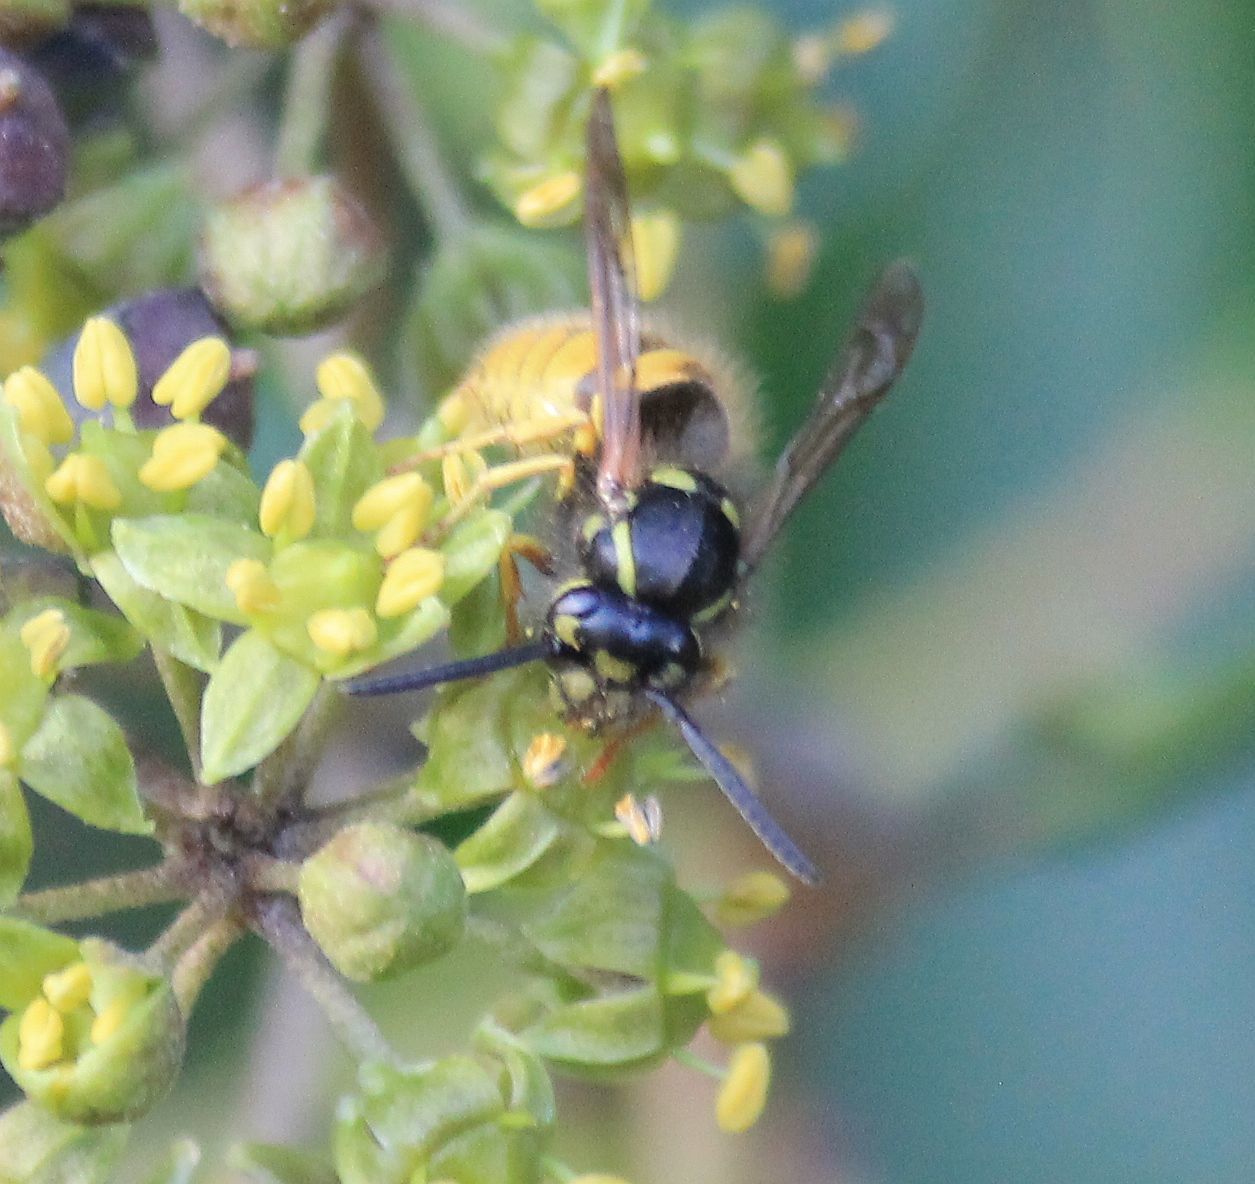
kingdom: Animalia
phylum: Arthropoda
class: Insecta
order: Hymenoptera
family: Vespidae
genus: Vespula
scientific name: Vespula vulgaris
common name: Common wasp
